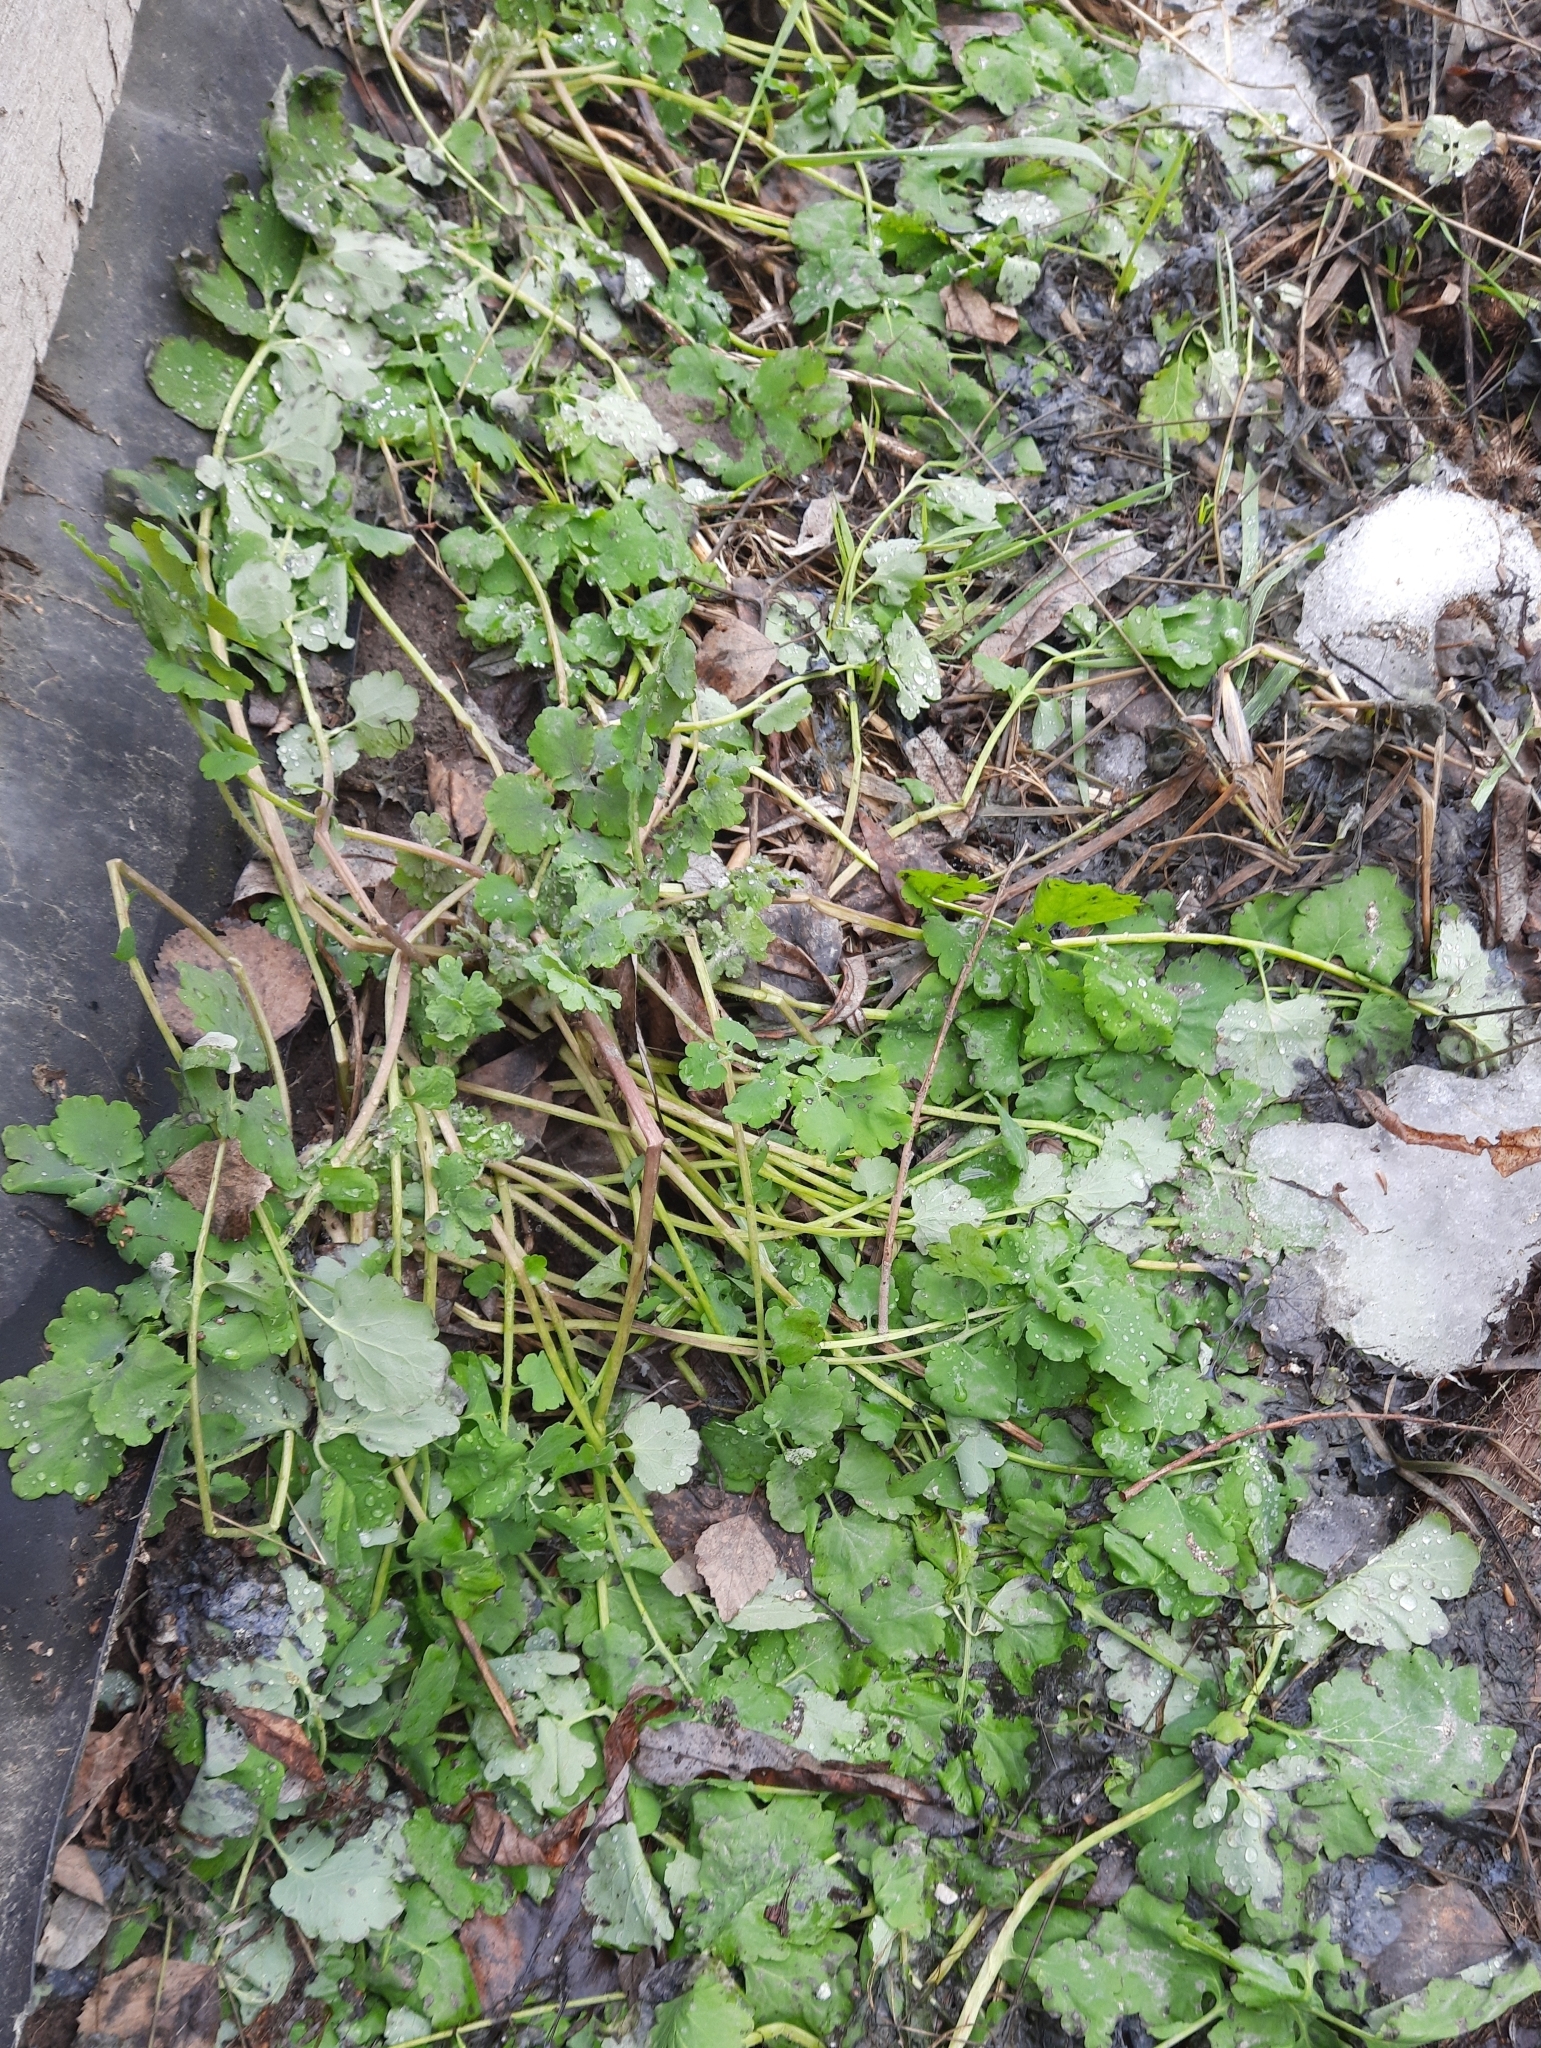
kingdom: Plantae
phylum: Tracheophyta
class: Magnoliopsida
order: Ranunculales
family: Papaveraceae
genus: Chelidonium
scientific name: Chelidonium majus
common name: Greater celandine
